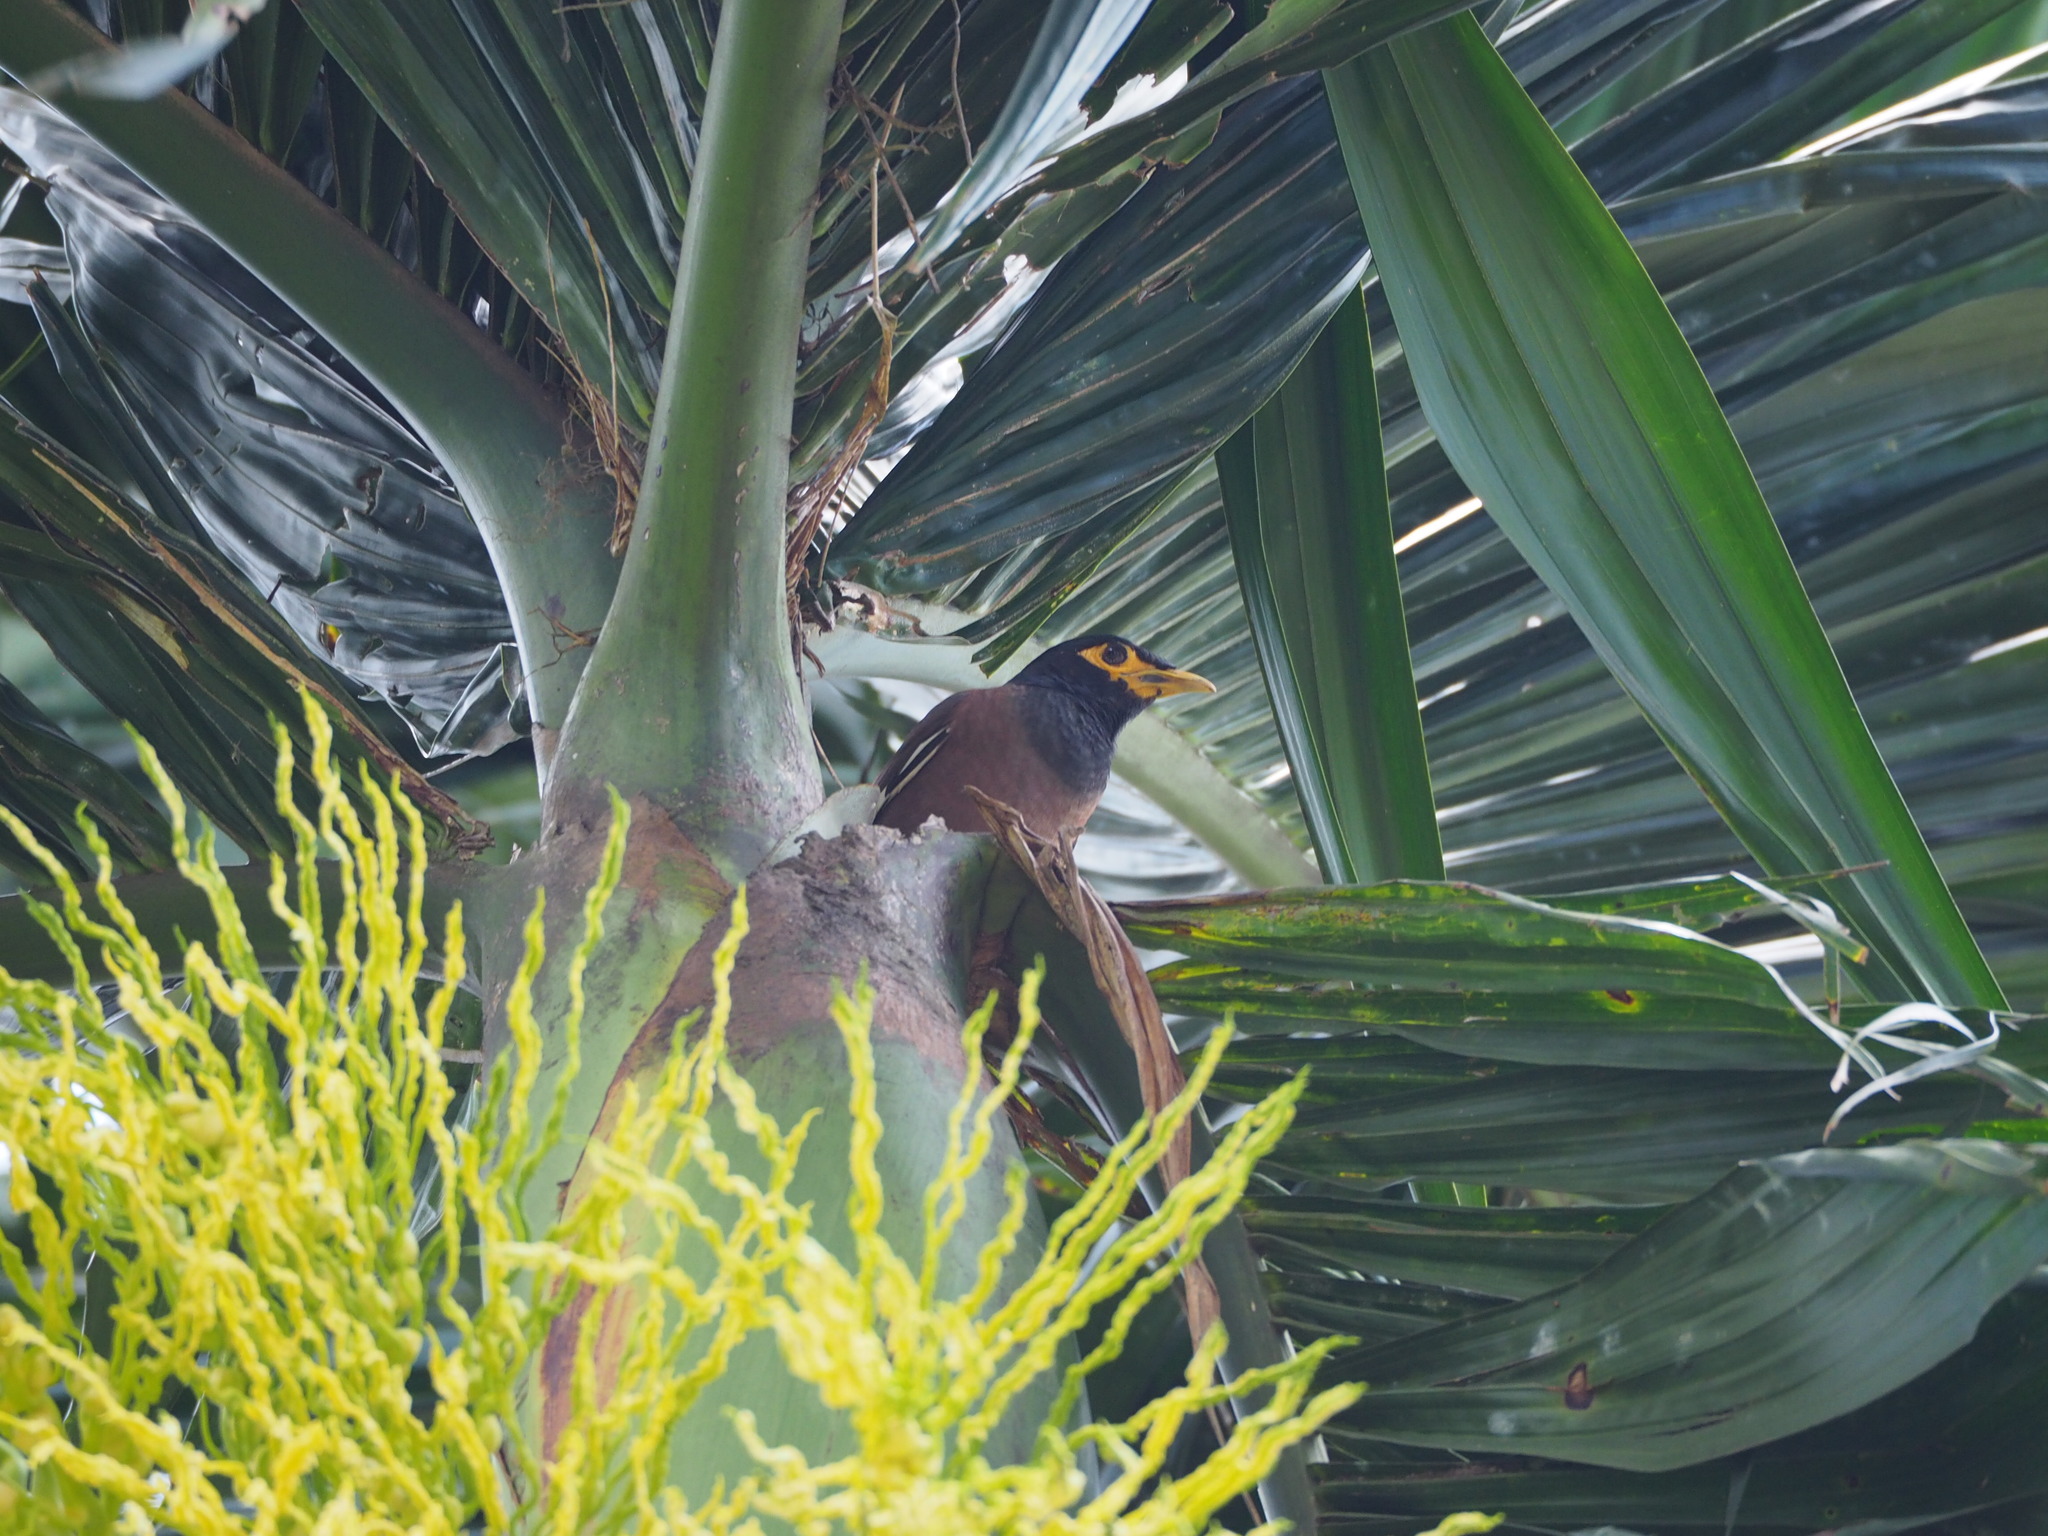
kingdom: Animalia
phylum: Chordata
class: Aves
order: Passeriformes
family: Sturnidae
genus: Acridotheres
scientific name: Acridotheres tristis
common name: Common myna
